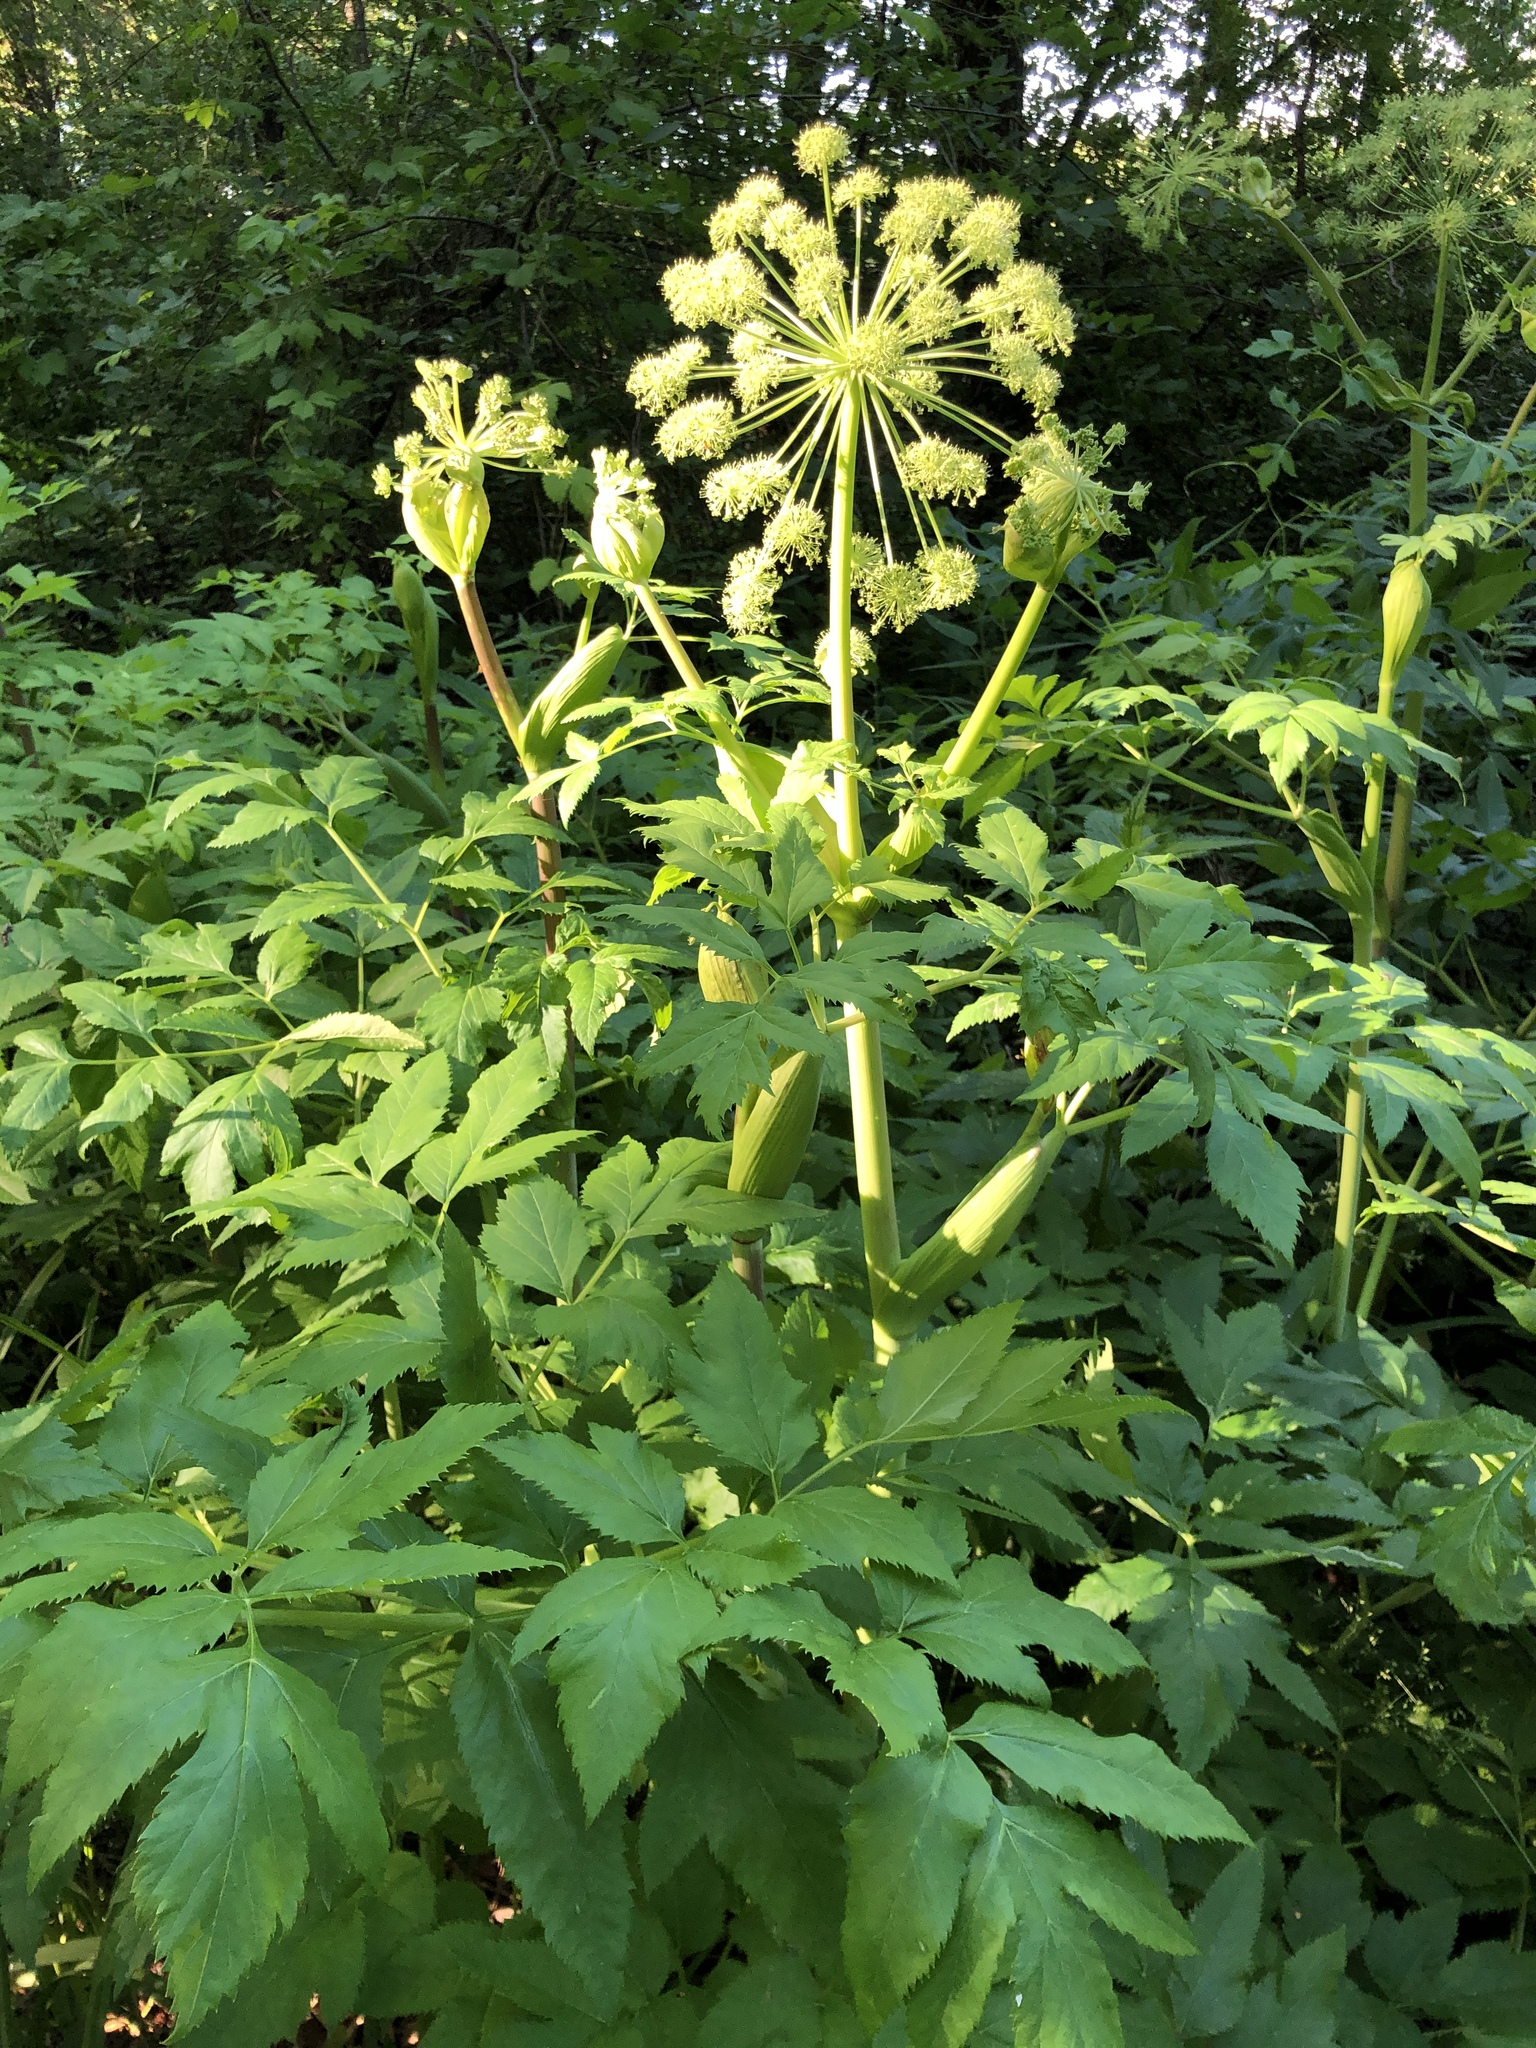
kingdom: Plantae
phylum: Tracheophyta
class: Magnoliopsida
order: Apiales
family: Apiaceae
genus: Angelica
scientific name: Angelica decurrens
